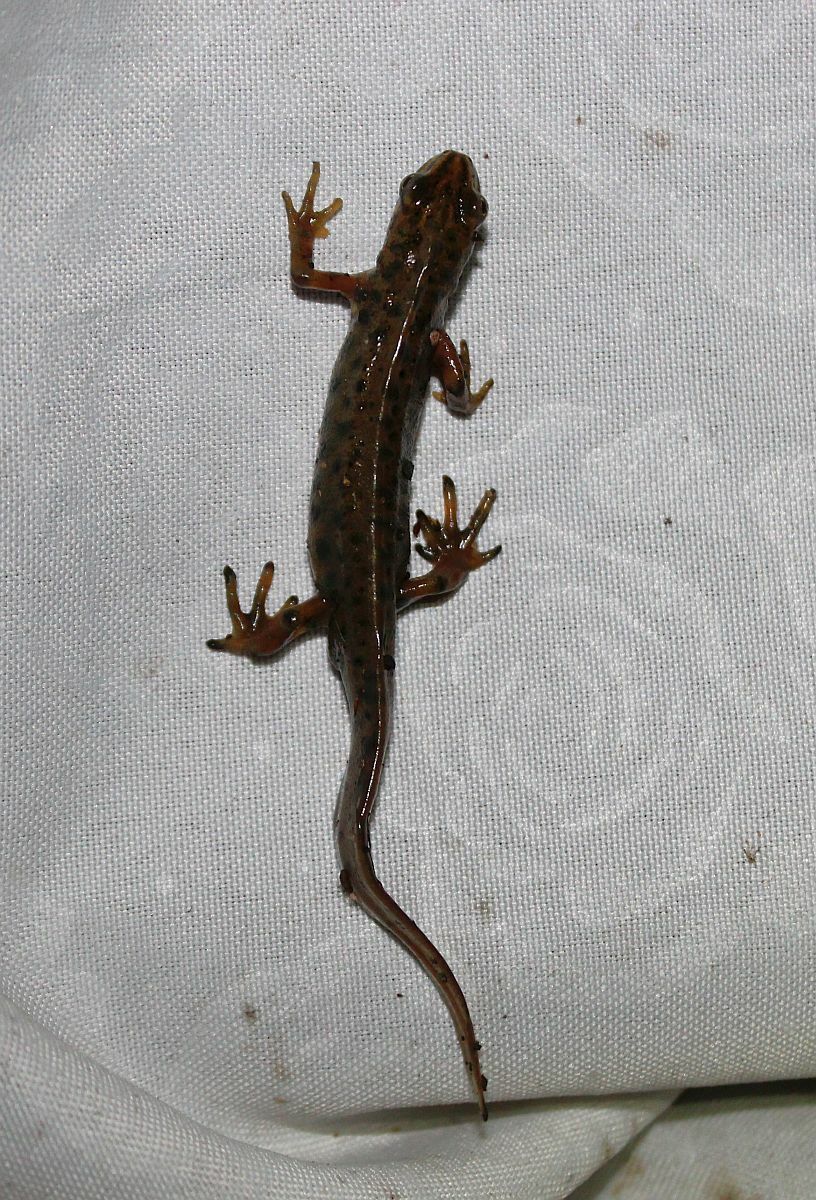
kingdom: Animalia
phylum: Chordata
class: Amphibia
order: Caudata
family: Salamandridae
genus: Lissotriton
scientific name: Lissotriton vulgaris
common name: Smooth newt
